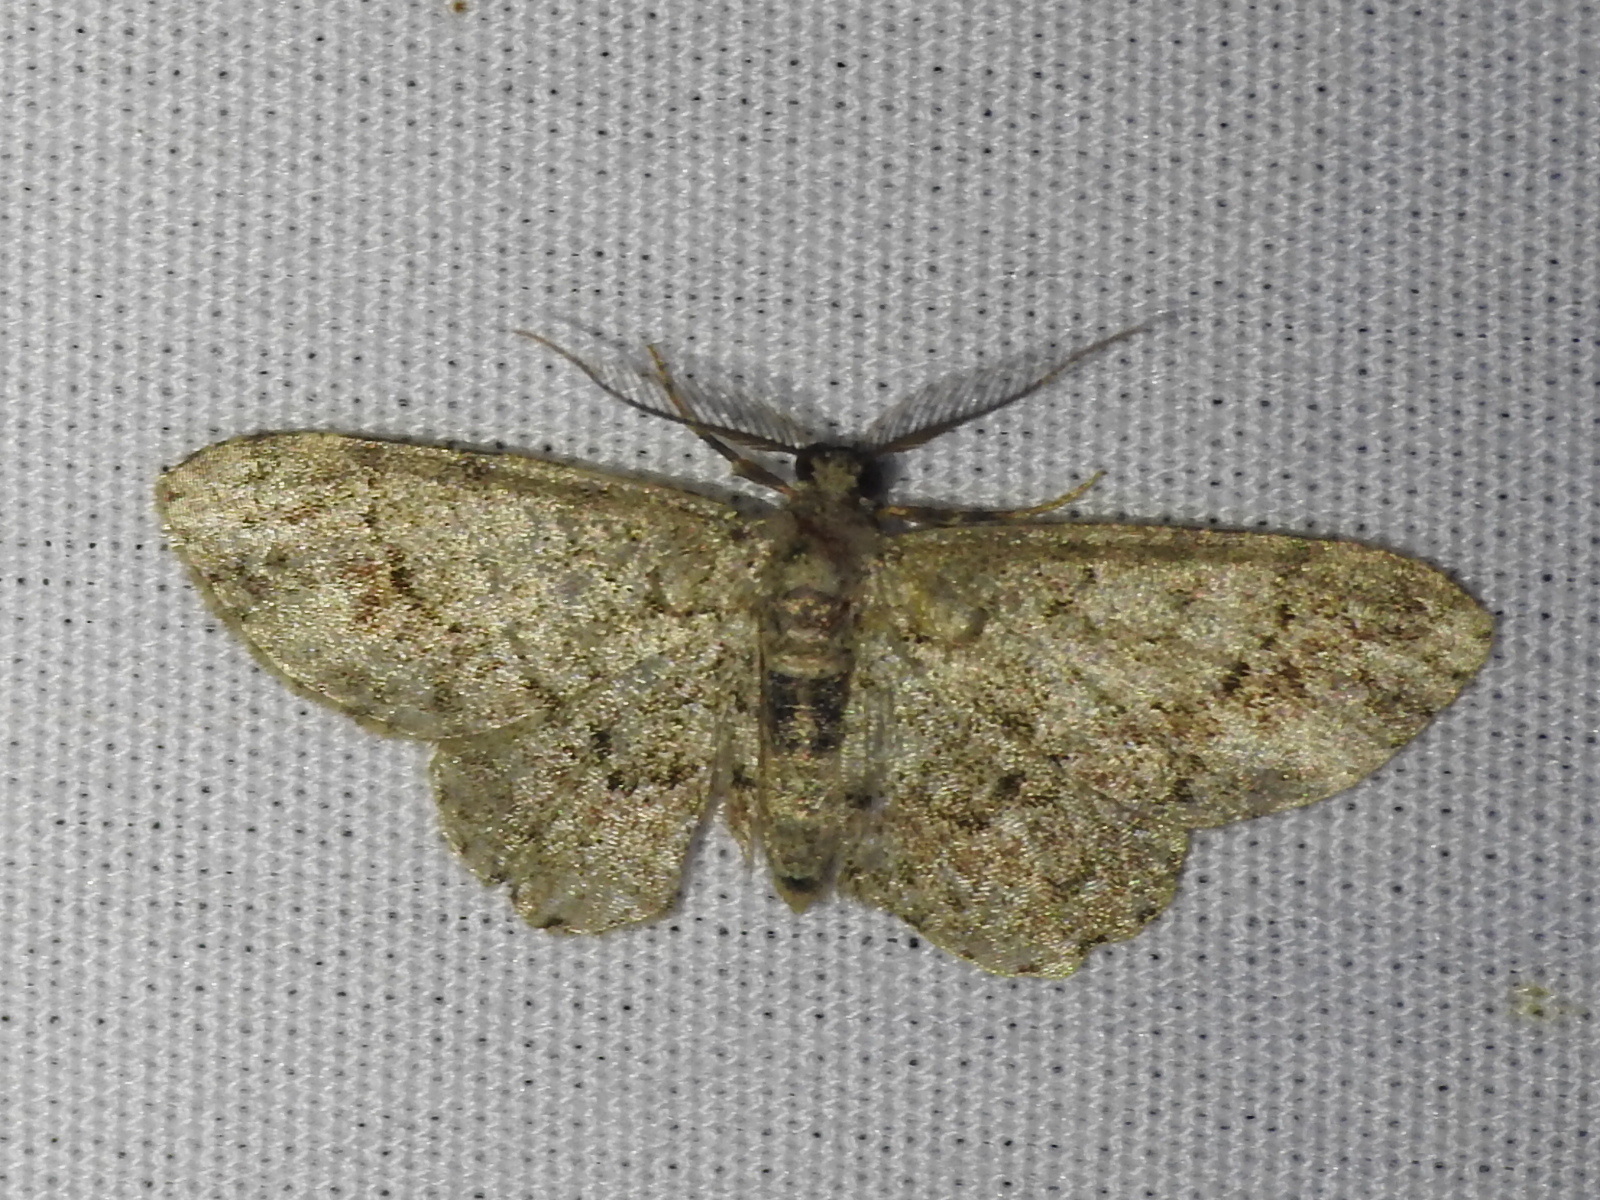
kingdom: Animalia
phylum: Arthropoda
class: Insecta
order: Lepidoptera
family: Geometridae
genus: Glenoides
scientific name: Glenoides texanaria
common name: Texas gray
